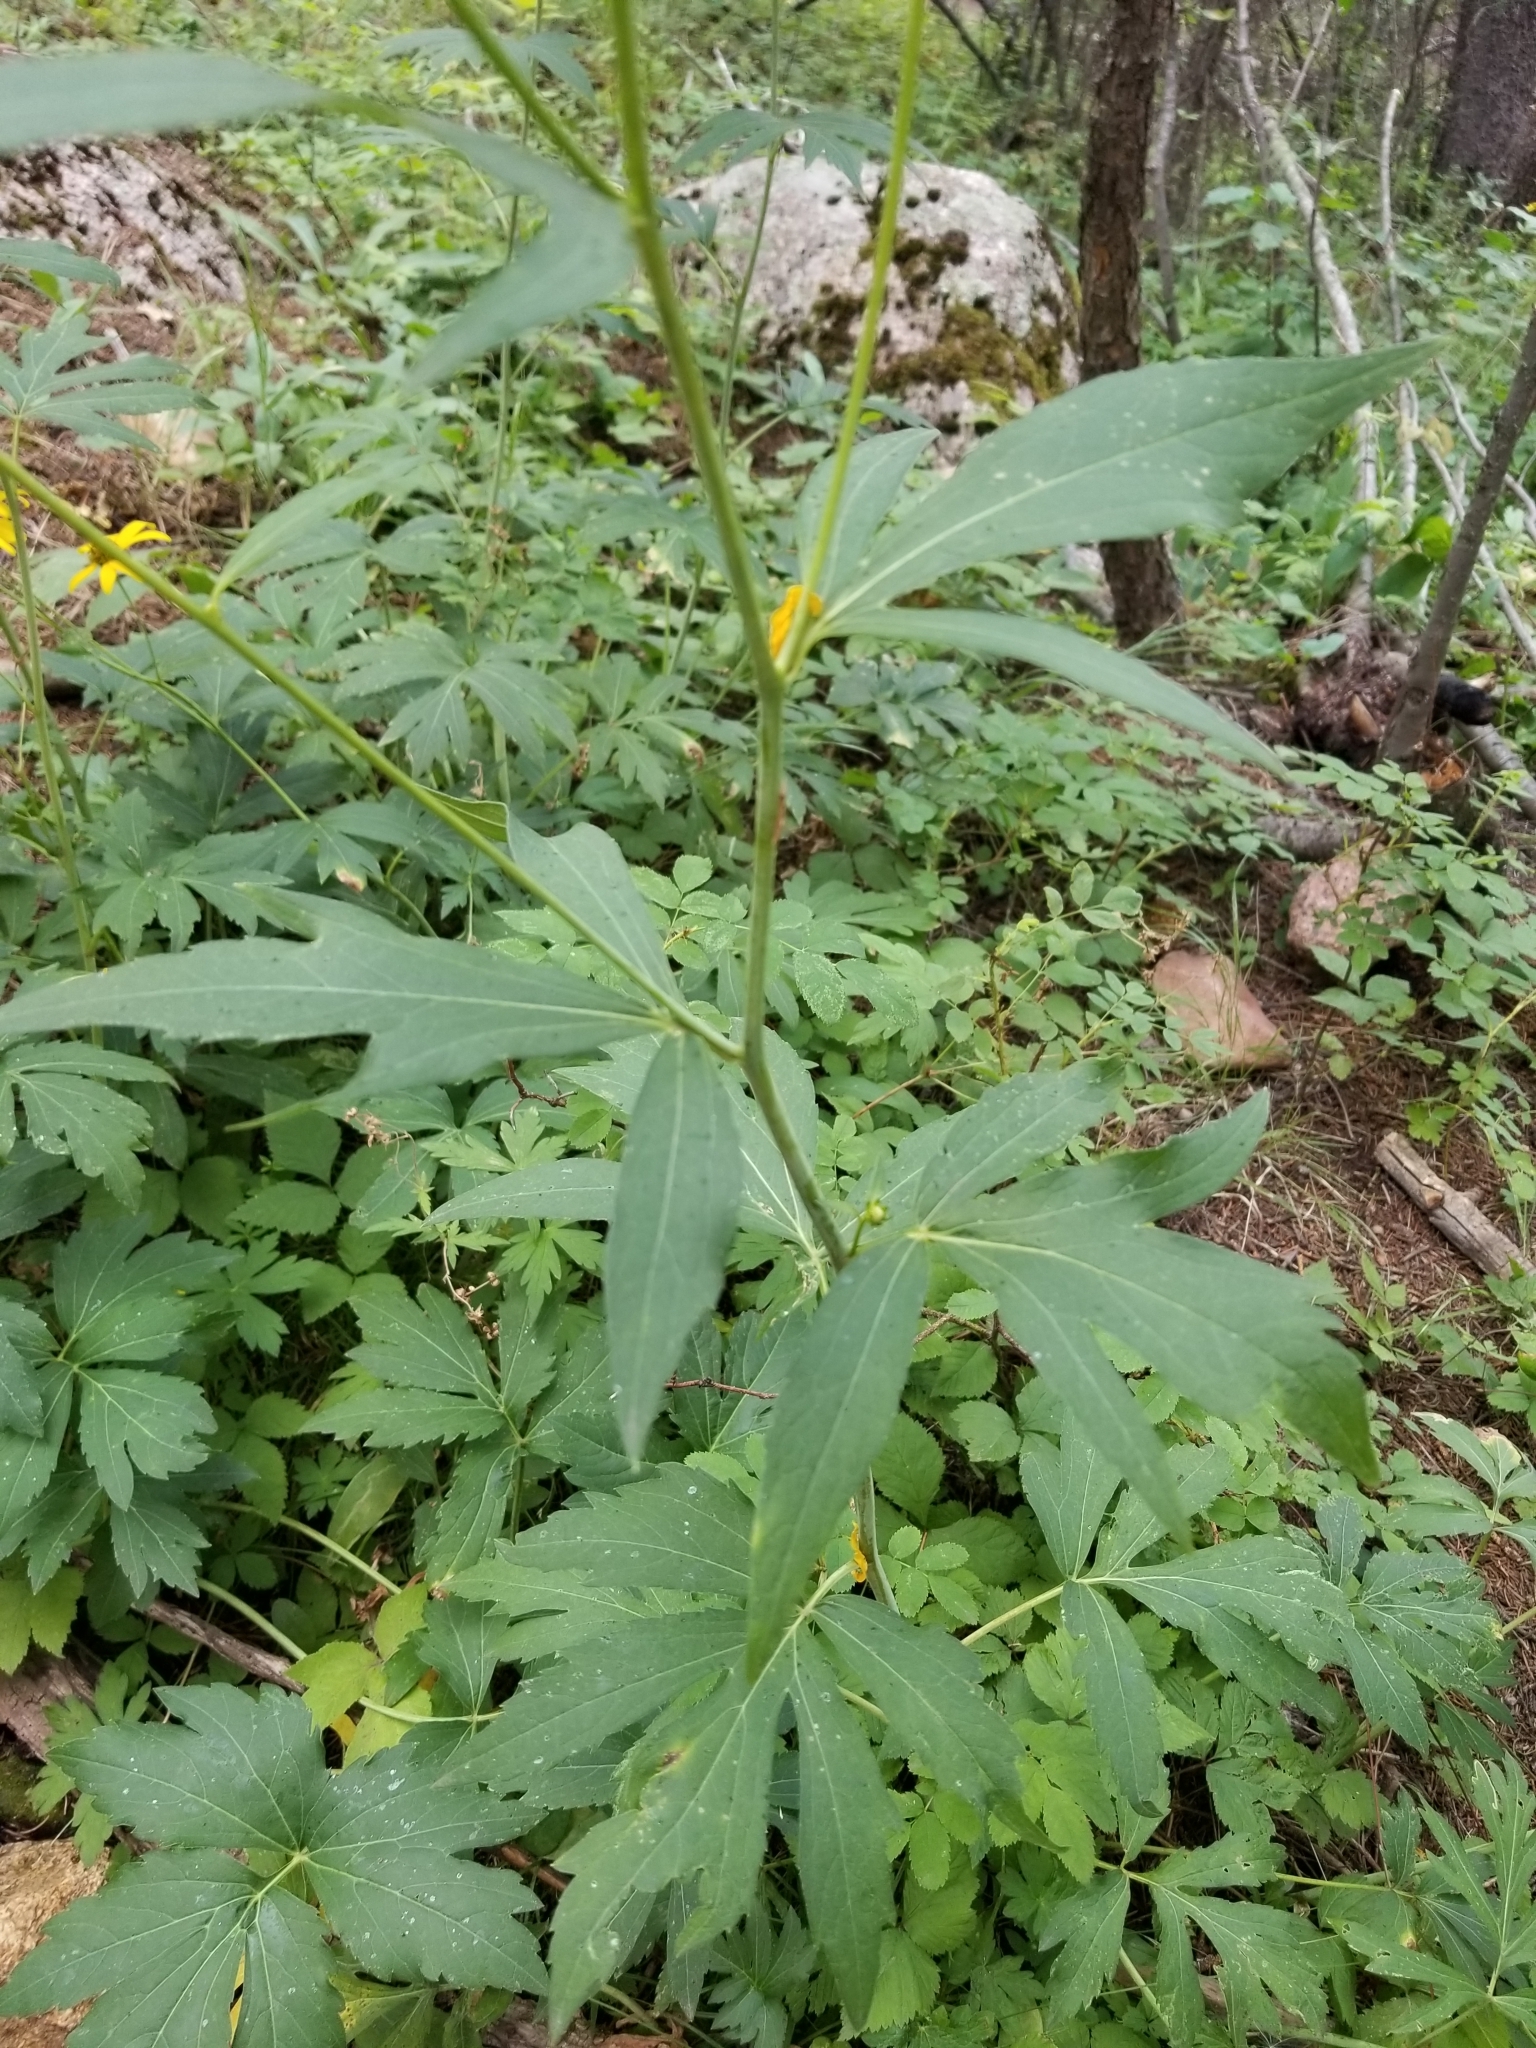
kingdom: Plantae
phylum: Tracheophyta
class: Magnoliopsida
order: Asterales
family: Asteraceae
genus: Rudbeckia
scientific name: Rudbeckia laciniata
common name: Coneflower
